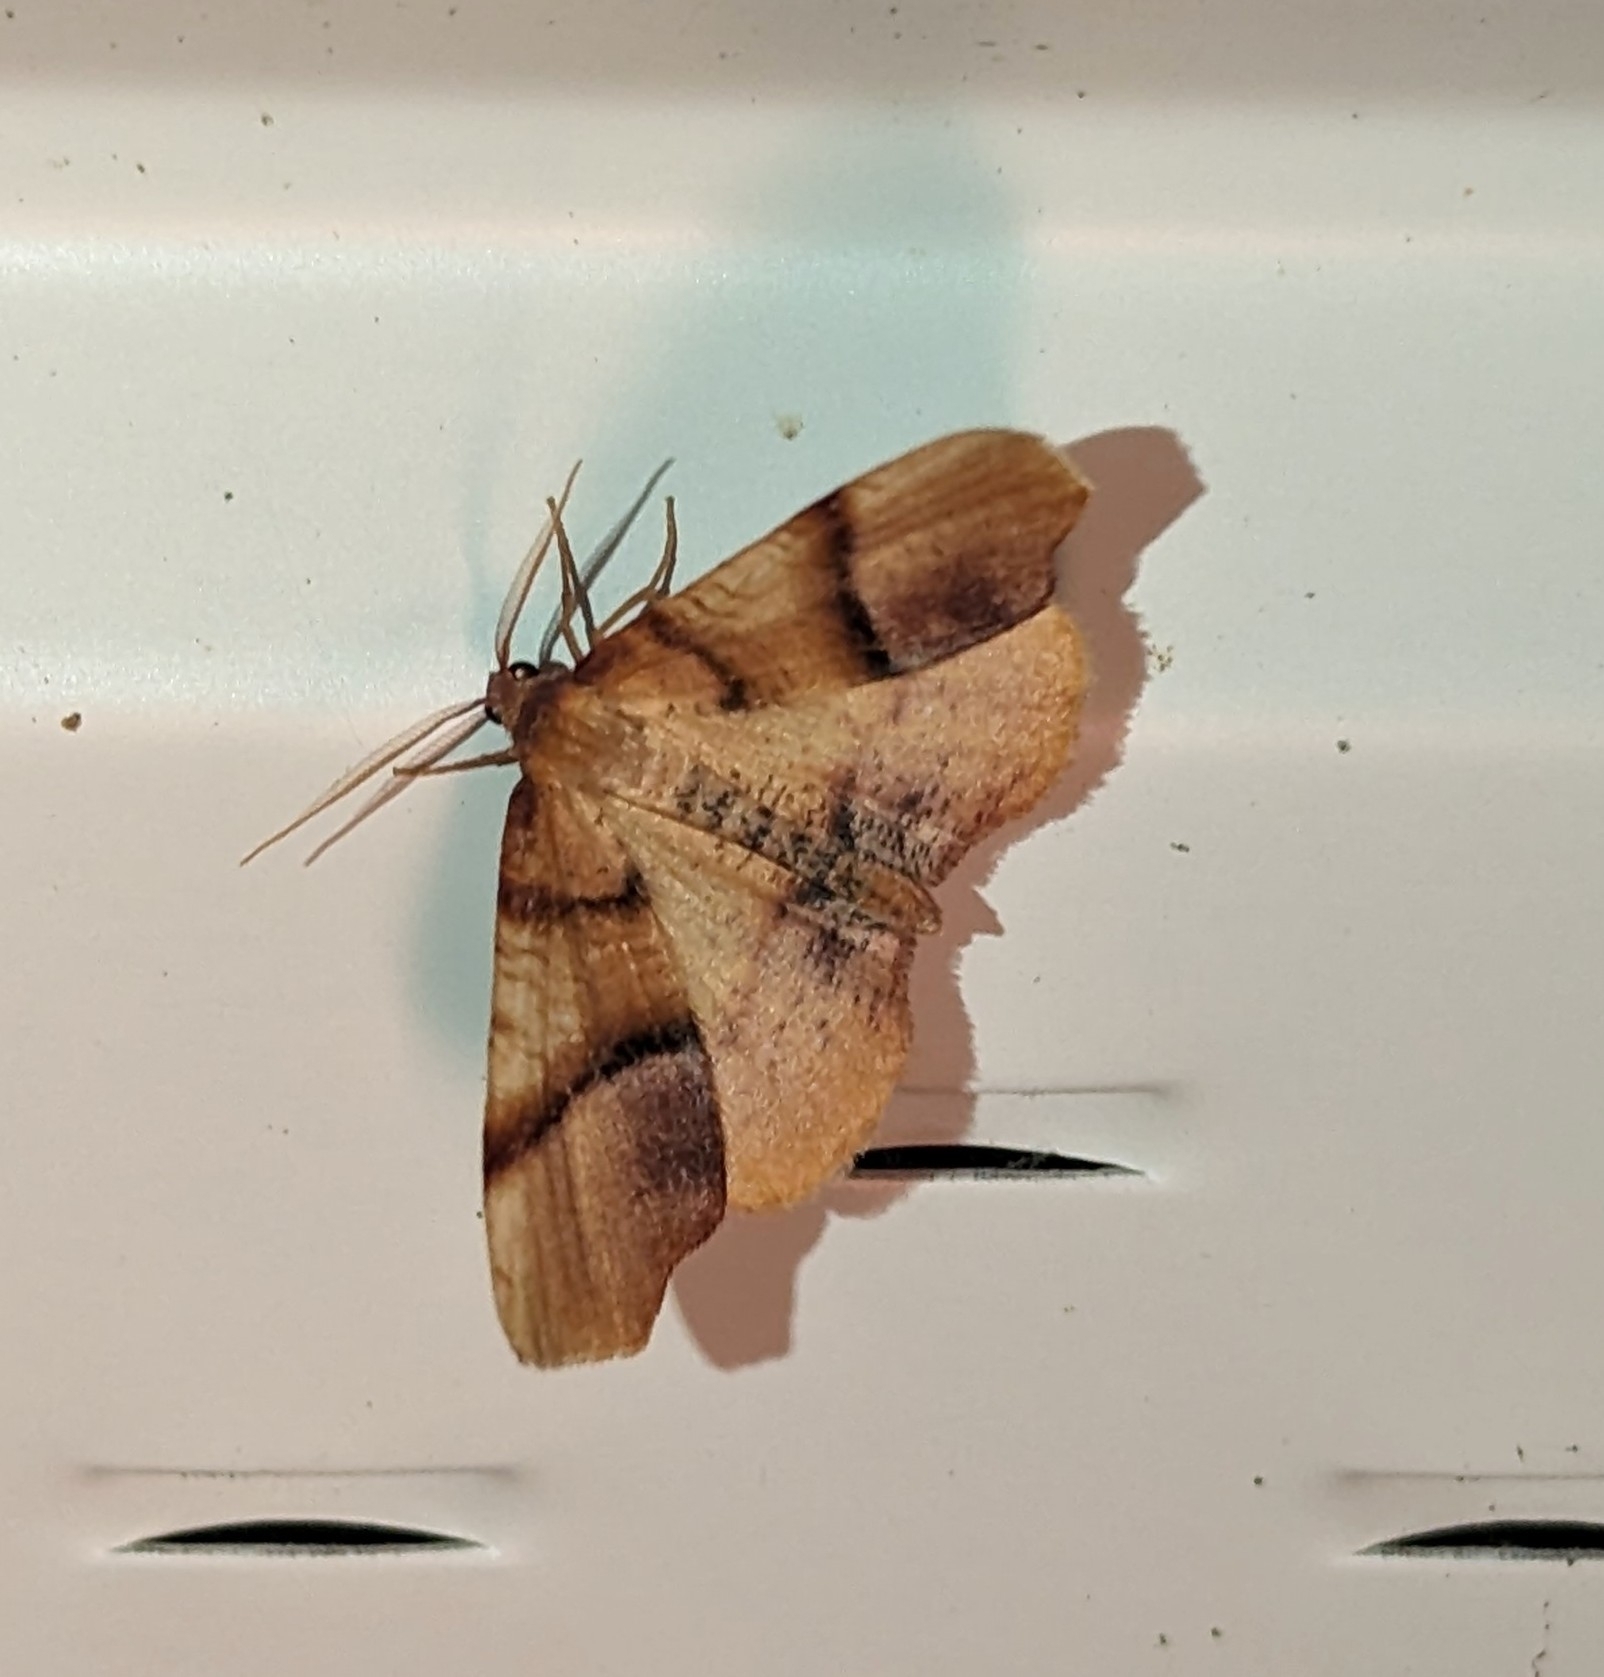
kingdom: Animalia
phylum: Arthropoda
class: Insecta
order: Lepidoptera
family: Geometridae
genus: Plagodis
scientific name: Plagodis phlogosaria
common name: Straight-lined plagodis
